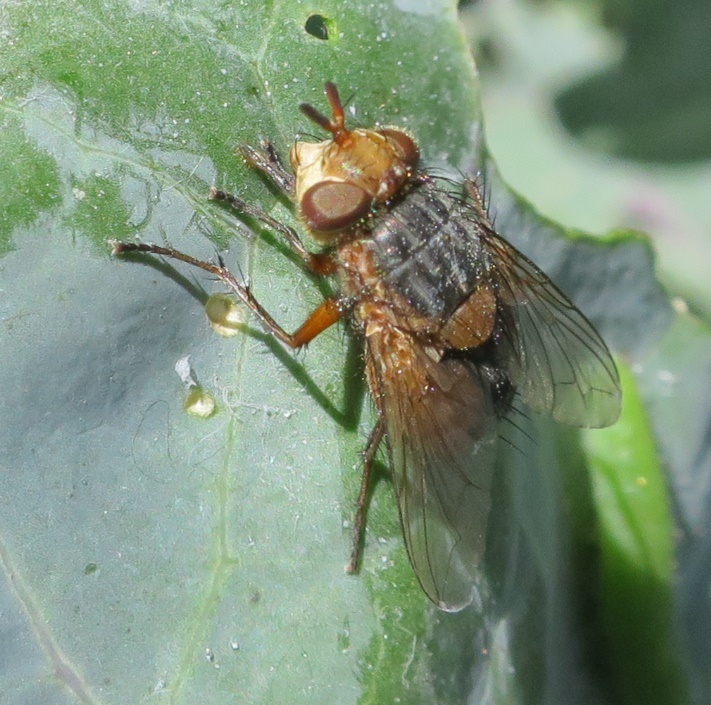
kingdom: Animalia
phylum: Arthropoda
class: Insecta
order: Diptera
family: Tachinidae
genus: Chaetophthalmus
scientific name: Chaetophthalmus bicolor
